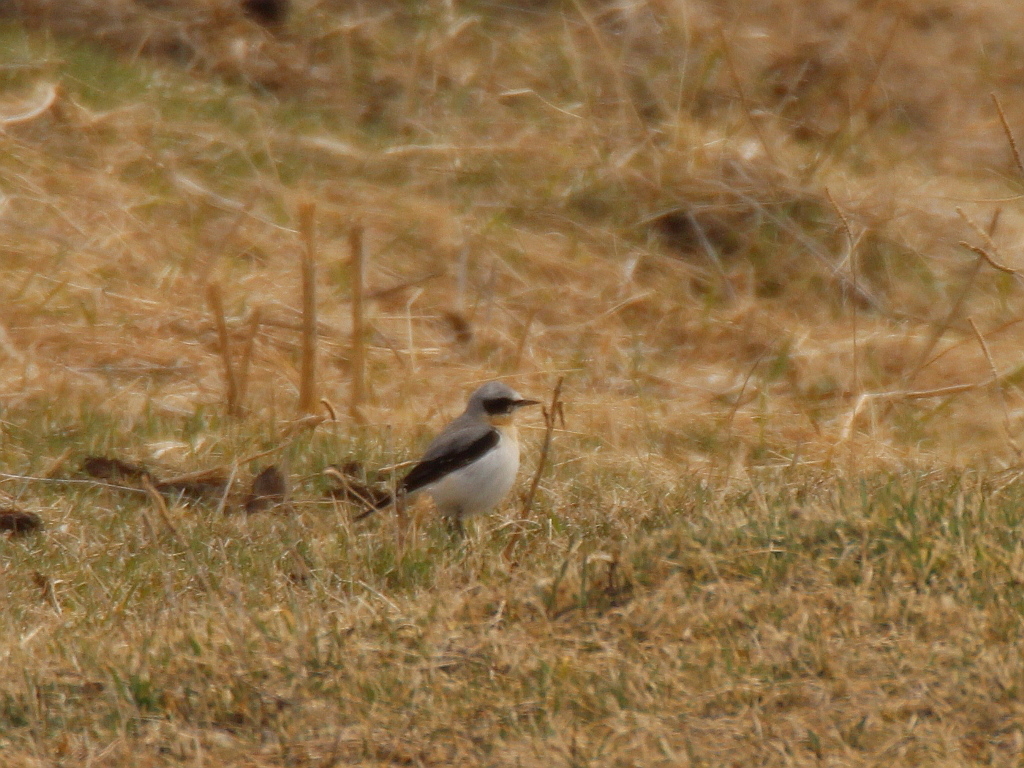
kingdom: Animalia
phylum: Chordata
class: Aves
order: Passeriformes
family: Muscicapidae
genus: Oenanthe
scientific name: Oenanthe oenanthe
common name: Northern wheatear
